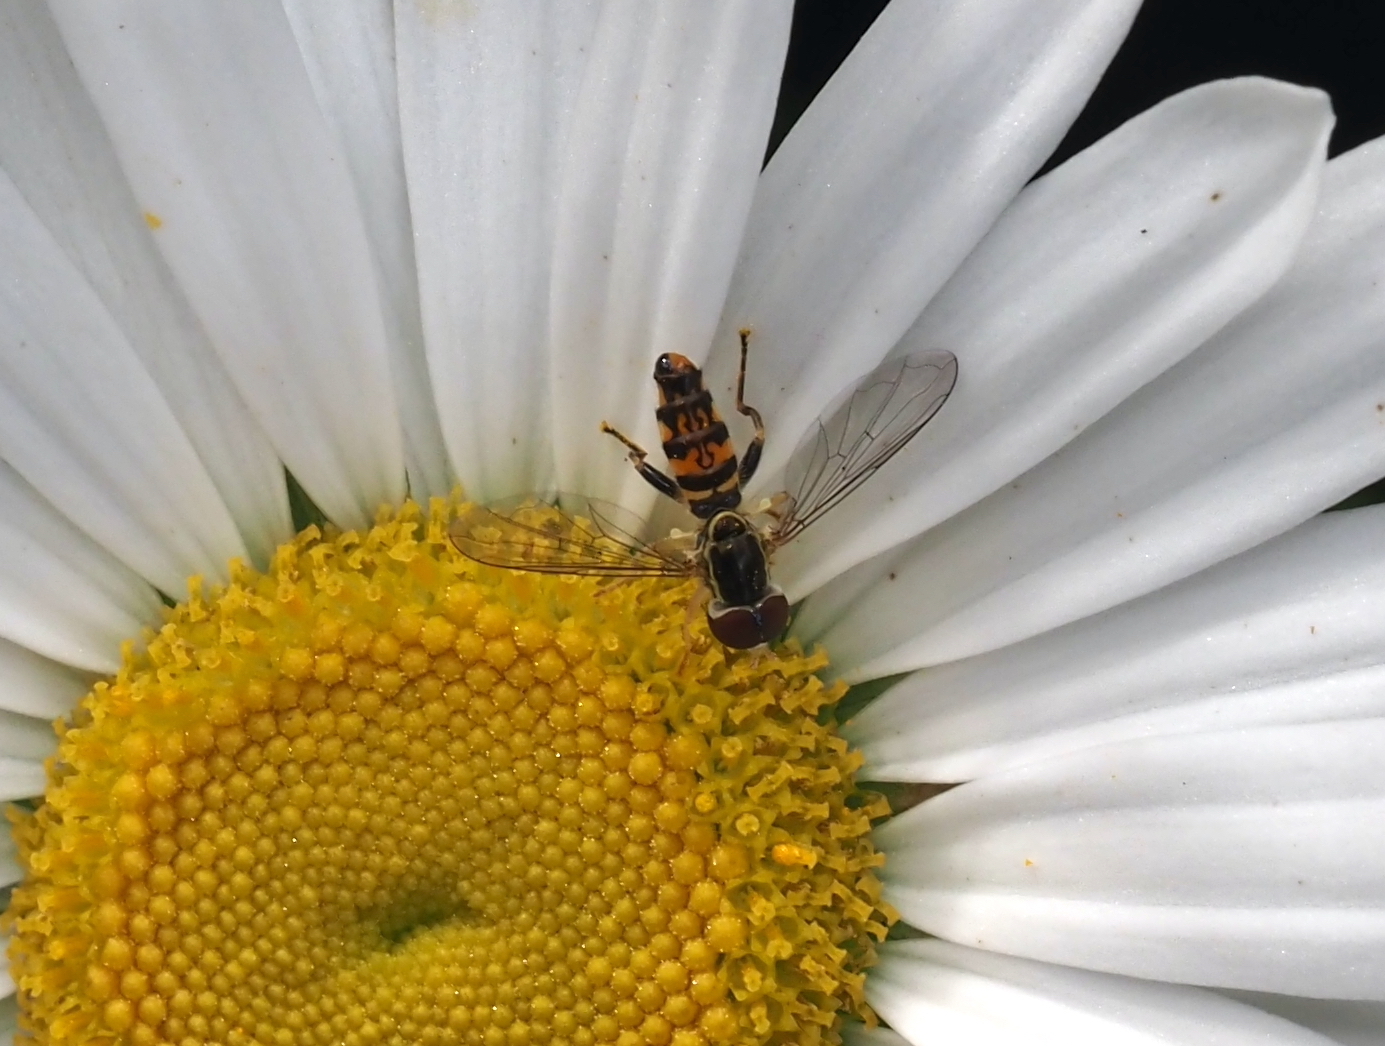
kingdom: Animalia
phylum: Arthropoda
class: Insecta
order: Diptera
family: Syrphidae
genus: Toxomerus
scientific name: Toxomerus geminatus
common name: Eastern calligrapher
